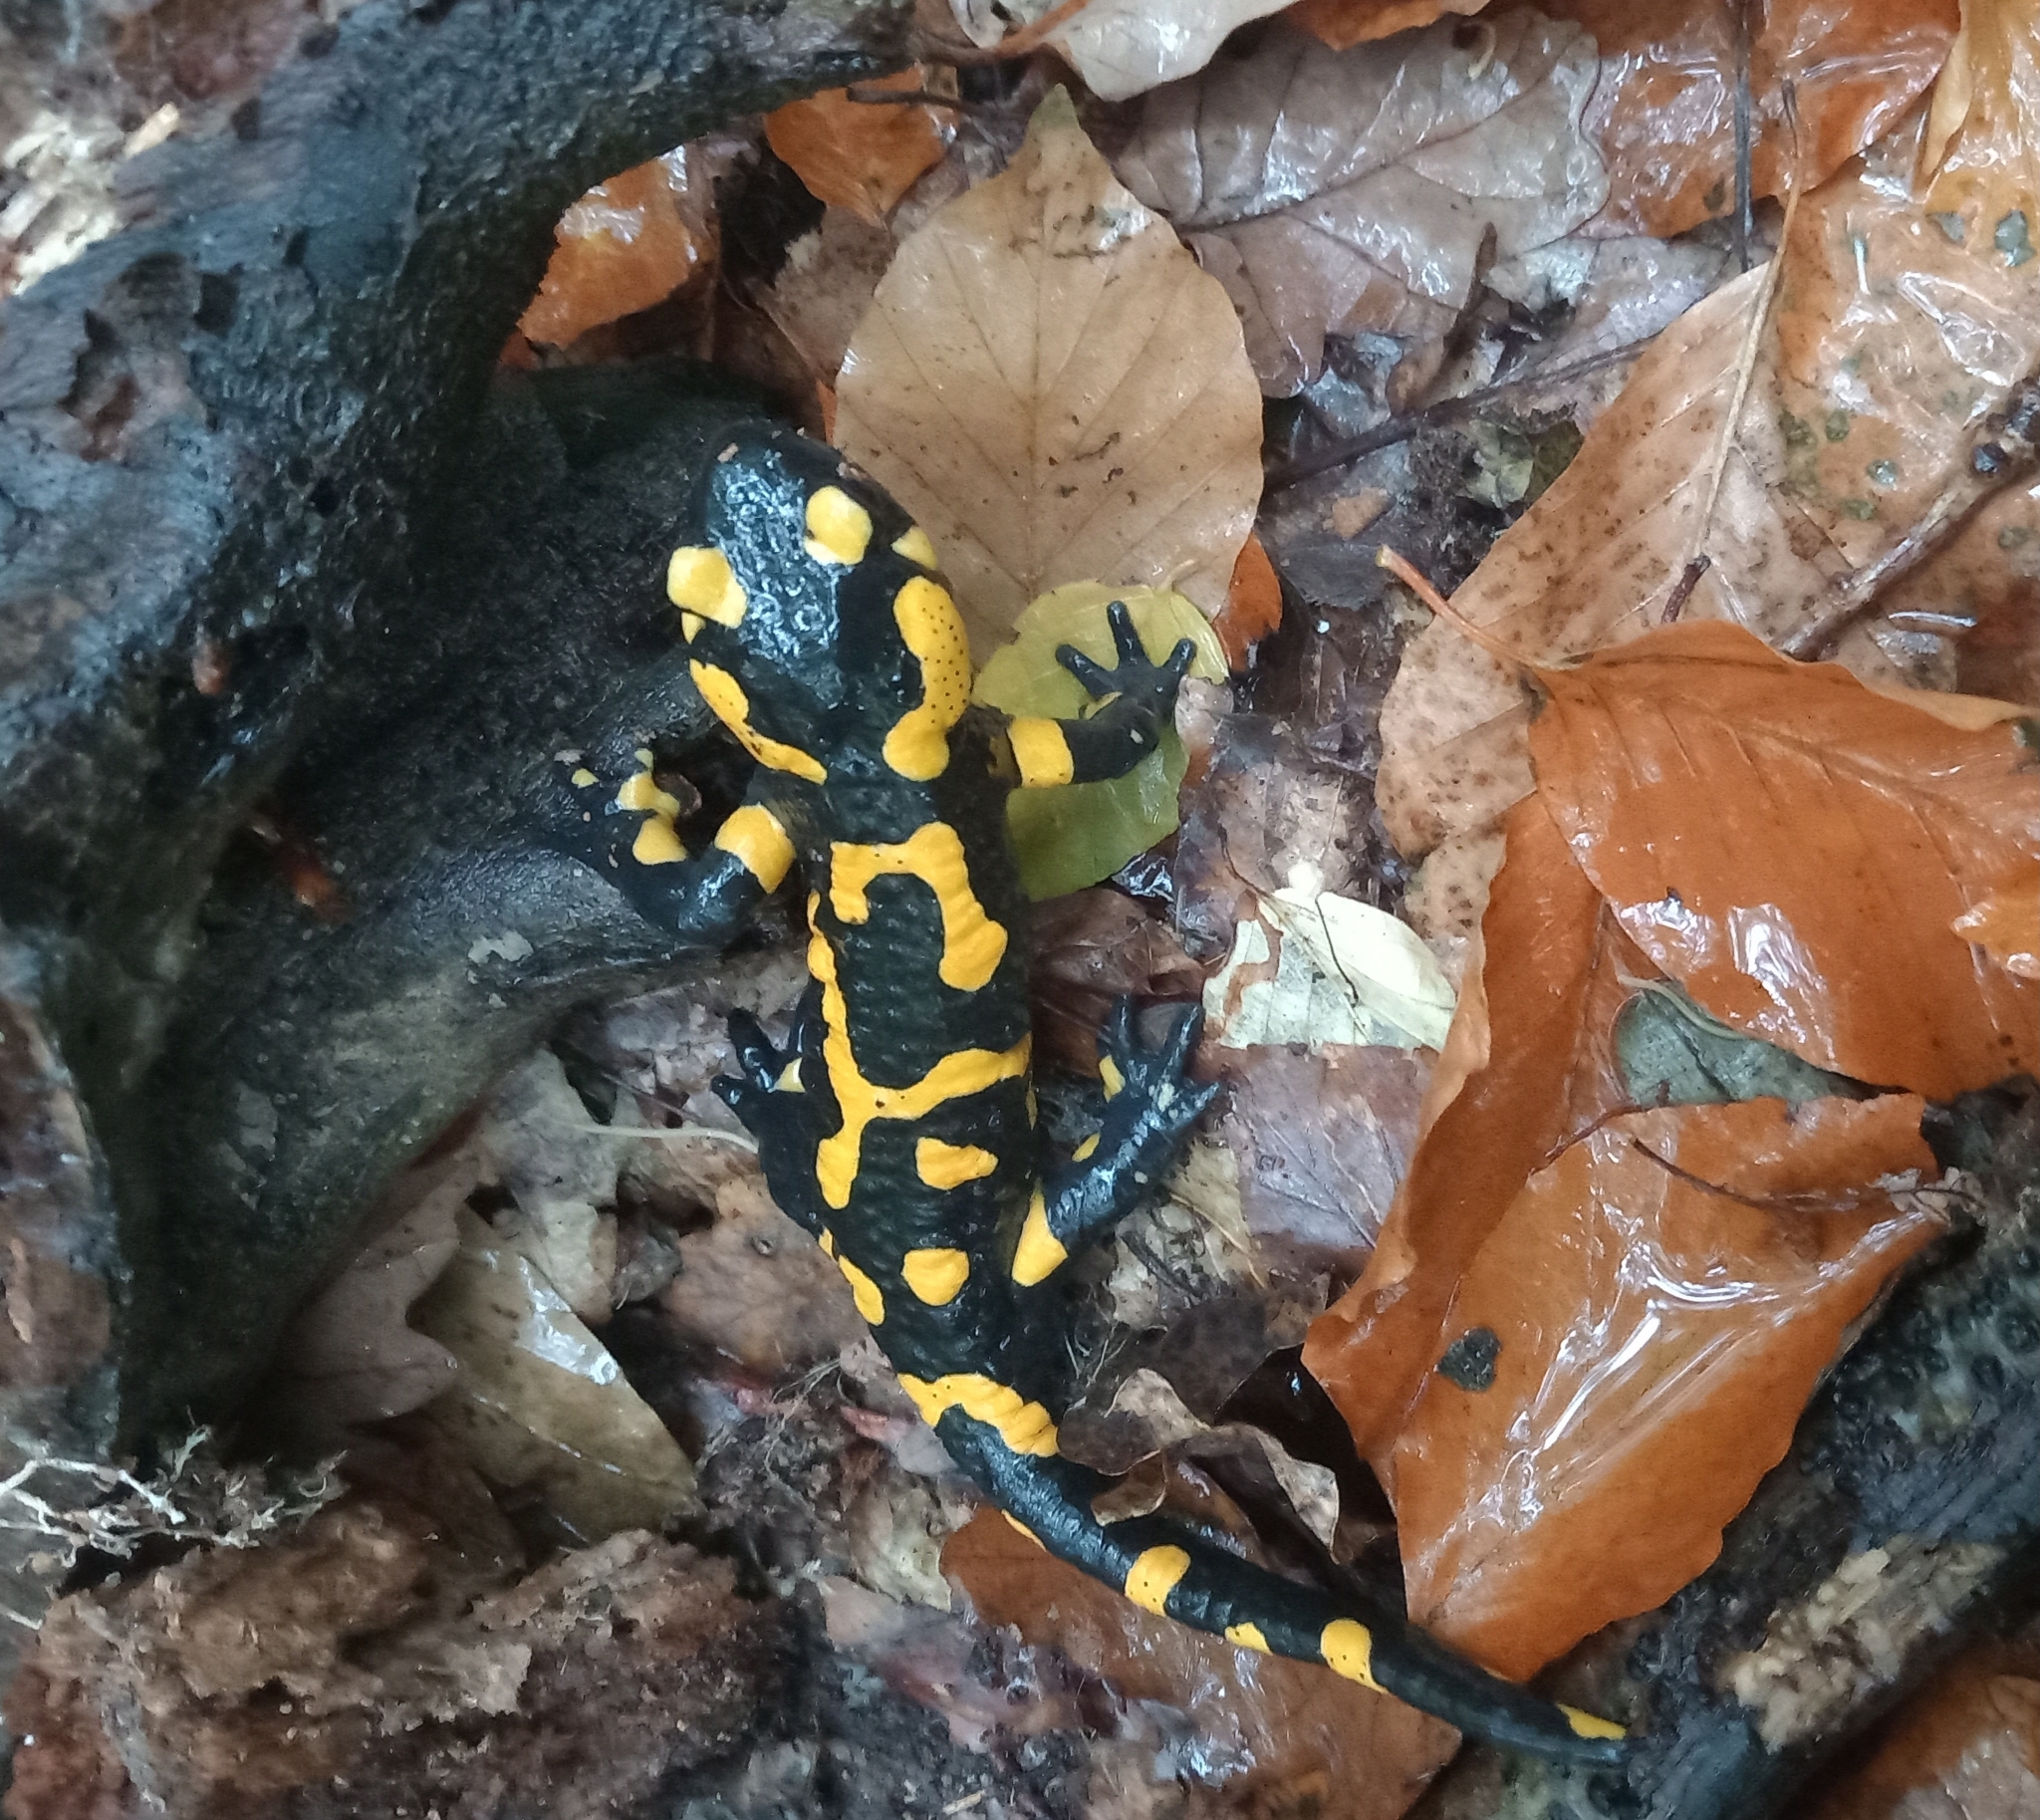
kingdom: Animalia
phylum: Chordata
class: Amphibia
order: Caudata
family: Salamandridae
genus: Salamandra
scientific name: Salamandra salamandra
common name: Fire salamander
